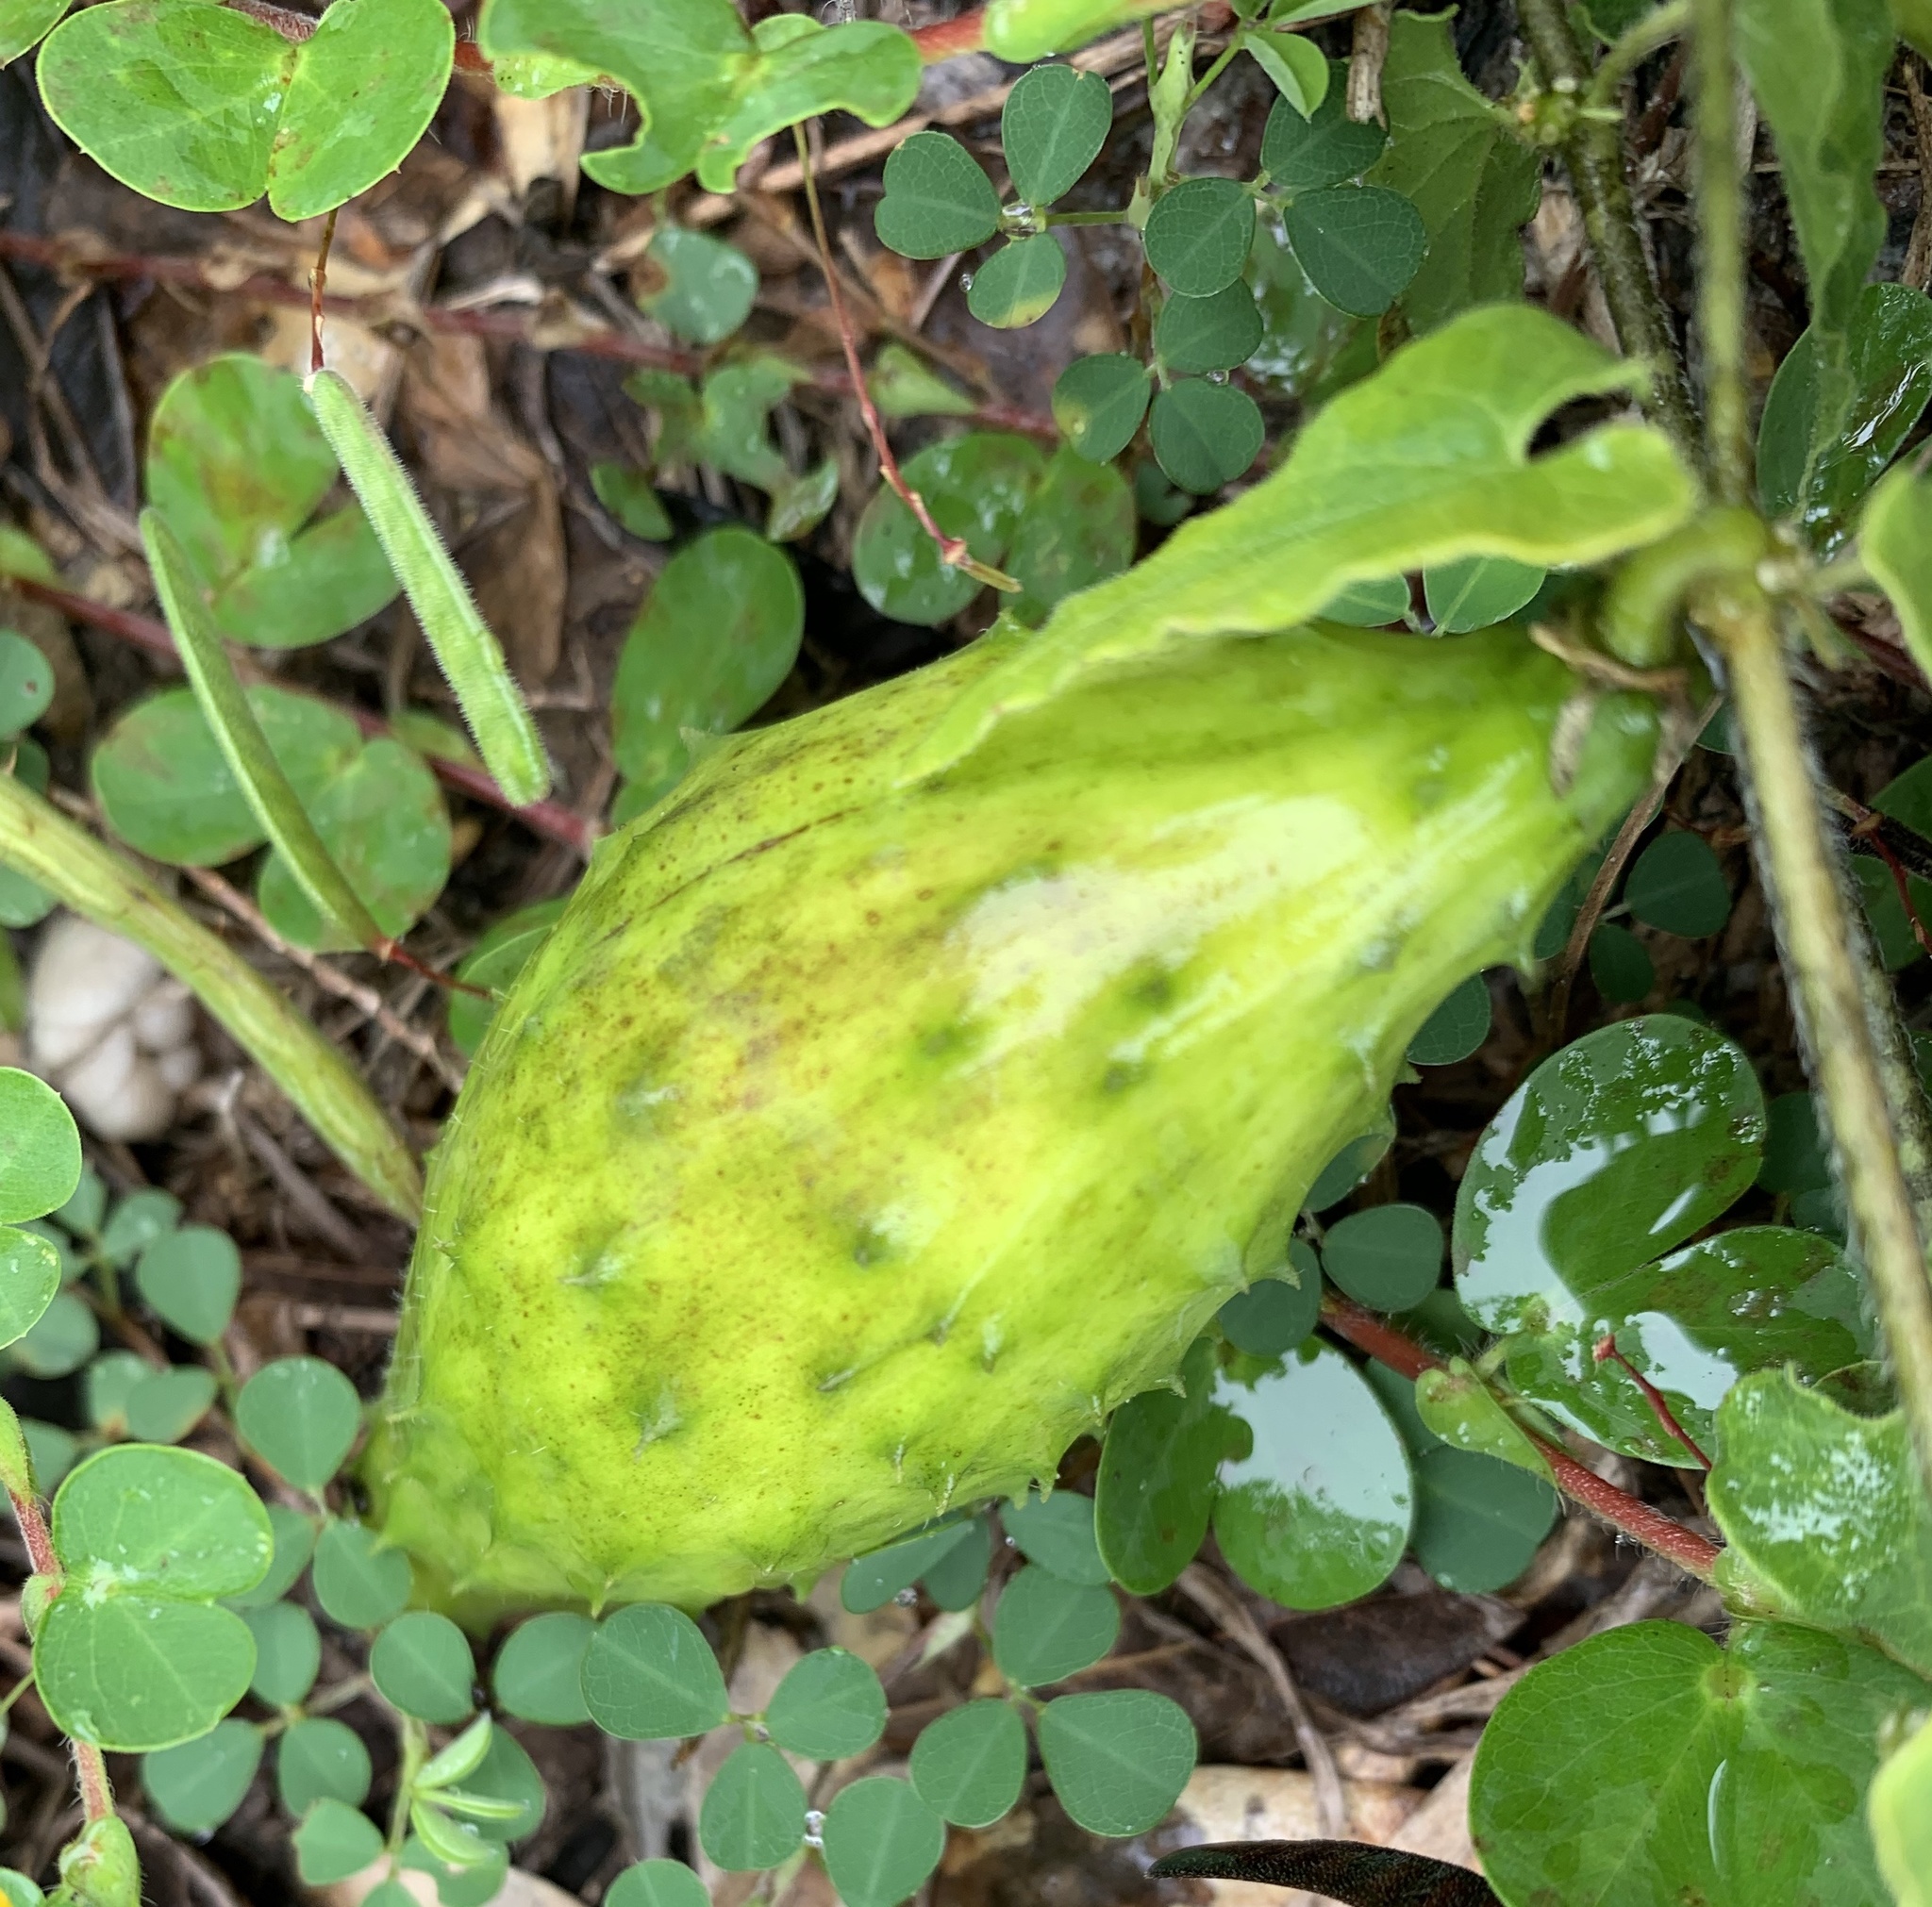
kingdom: Plantae
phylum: Tracheophyta
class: Magnoliopsida
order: Gentianales
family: Apocynaceae
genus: Chthamalia
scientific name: Chthamalia pubiflora
